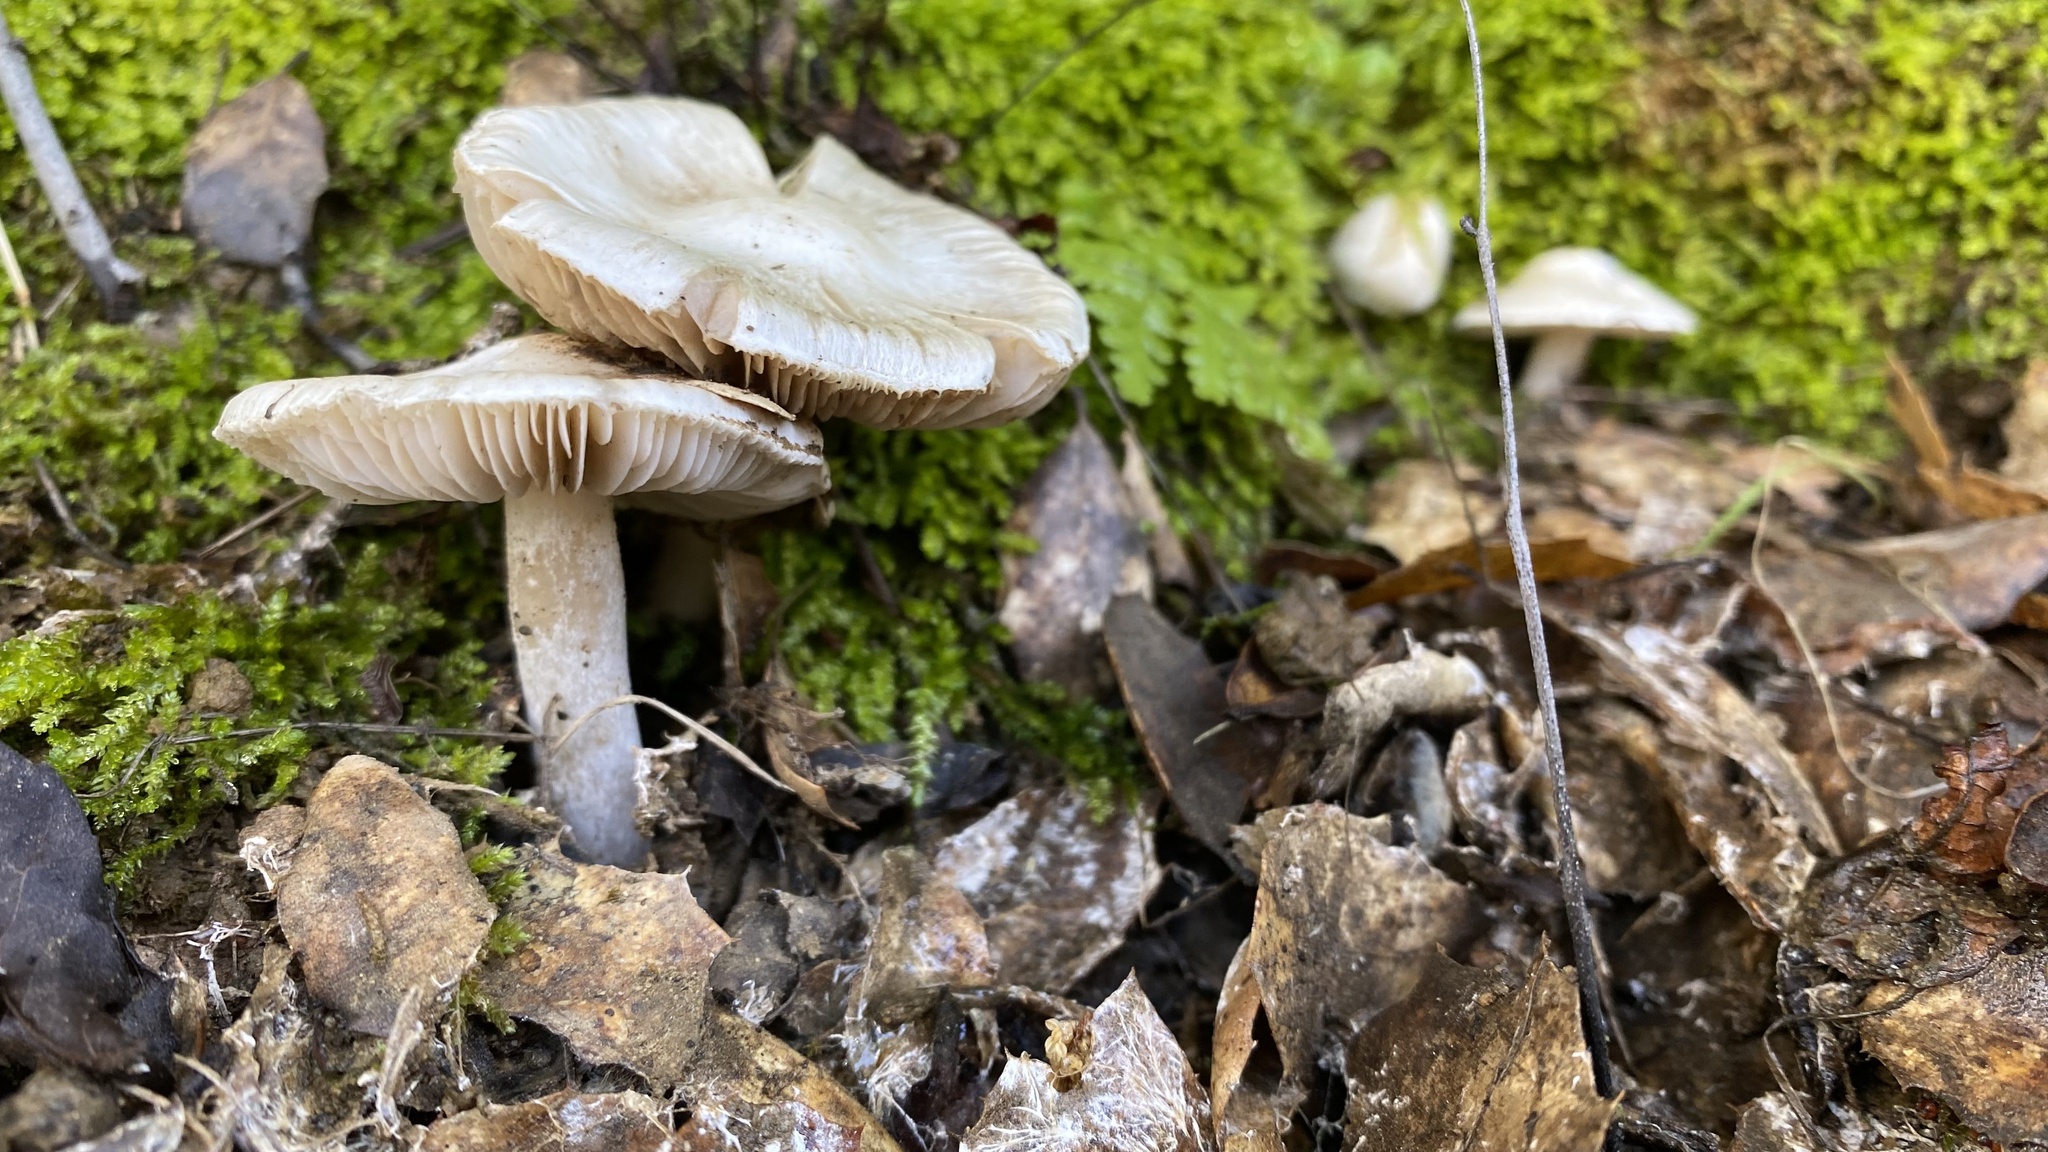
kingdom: Fungi
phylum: Basidiomycota
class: Agaricomycetes
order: Agaricales
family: Inocybaceae
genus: Inocybe
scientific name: Inocybe insinuata
